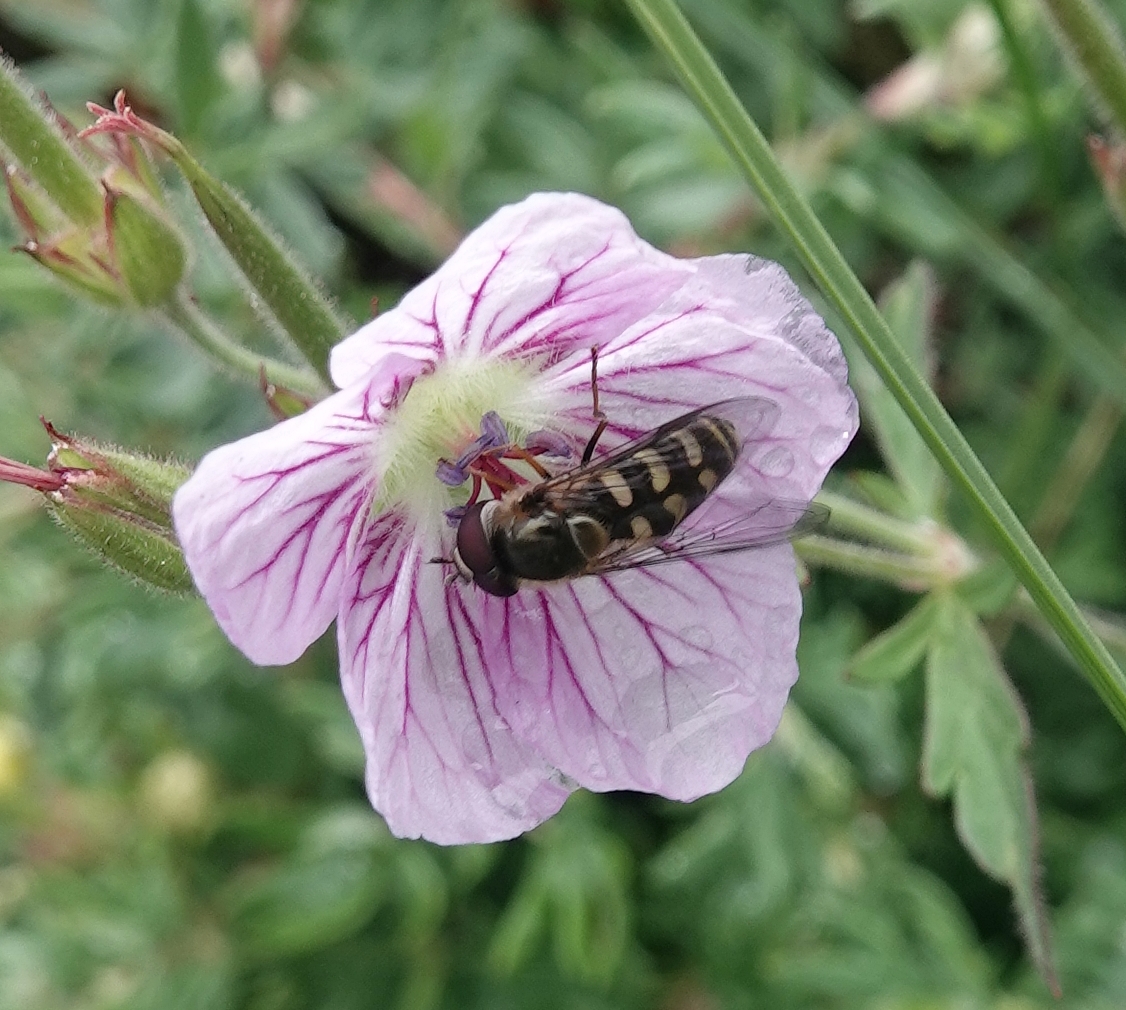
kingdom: Animalia
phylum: Arthropoda
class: Insecta
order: Diptera
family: Syrphidae
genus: Lapposyrphus
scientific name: Lapposyrphus lapponicus
